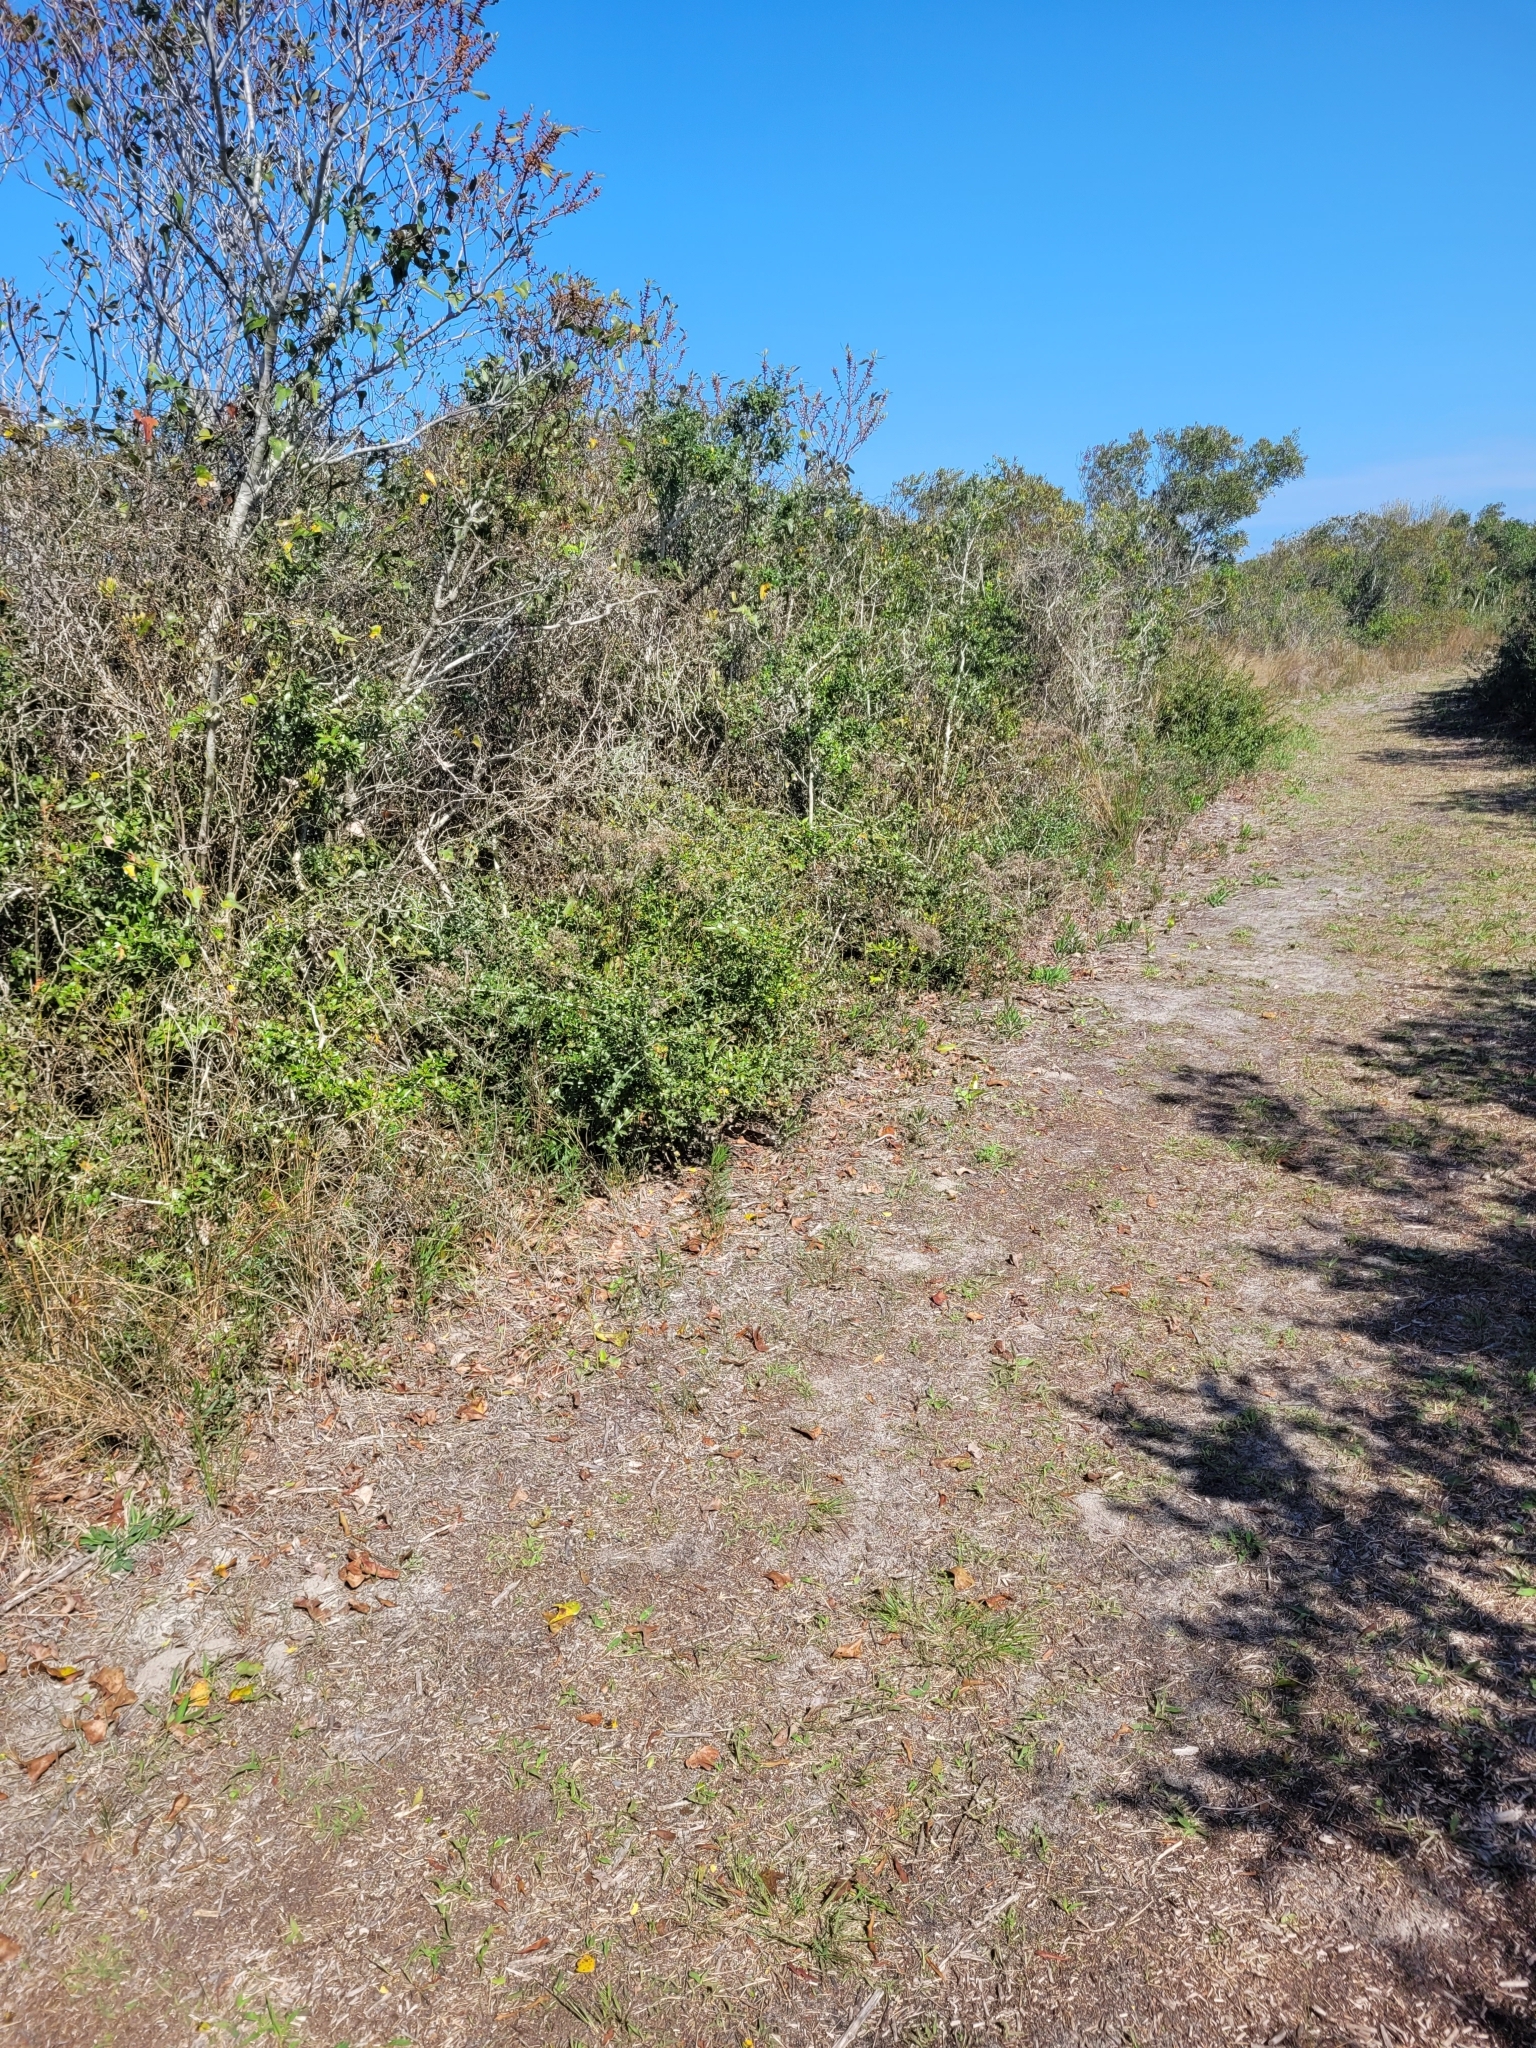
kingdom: Animalia
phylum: Chordata
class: Squamata
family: Colubridae
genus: Lampropeltis
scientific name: Lampropeltis getula
